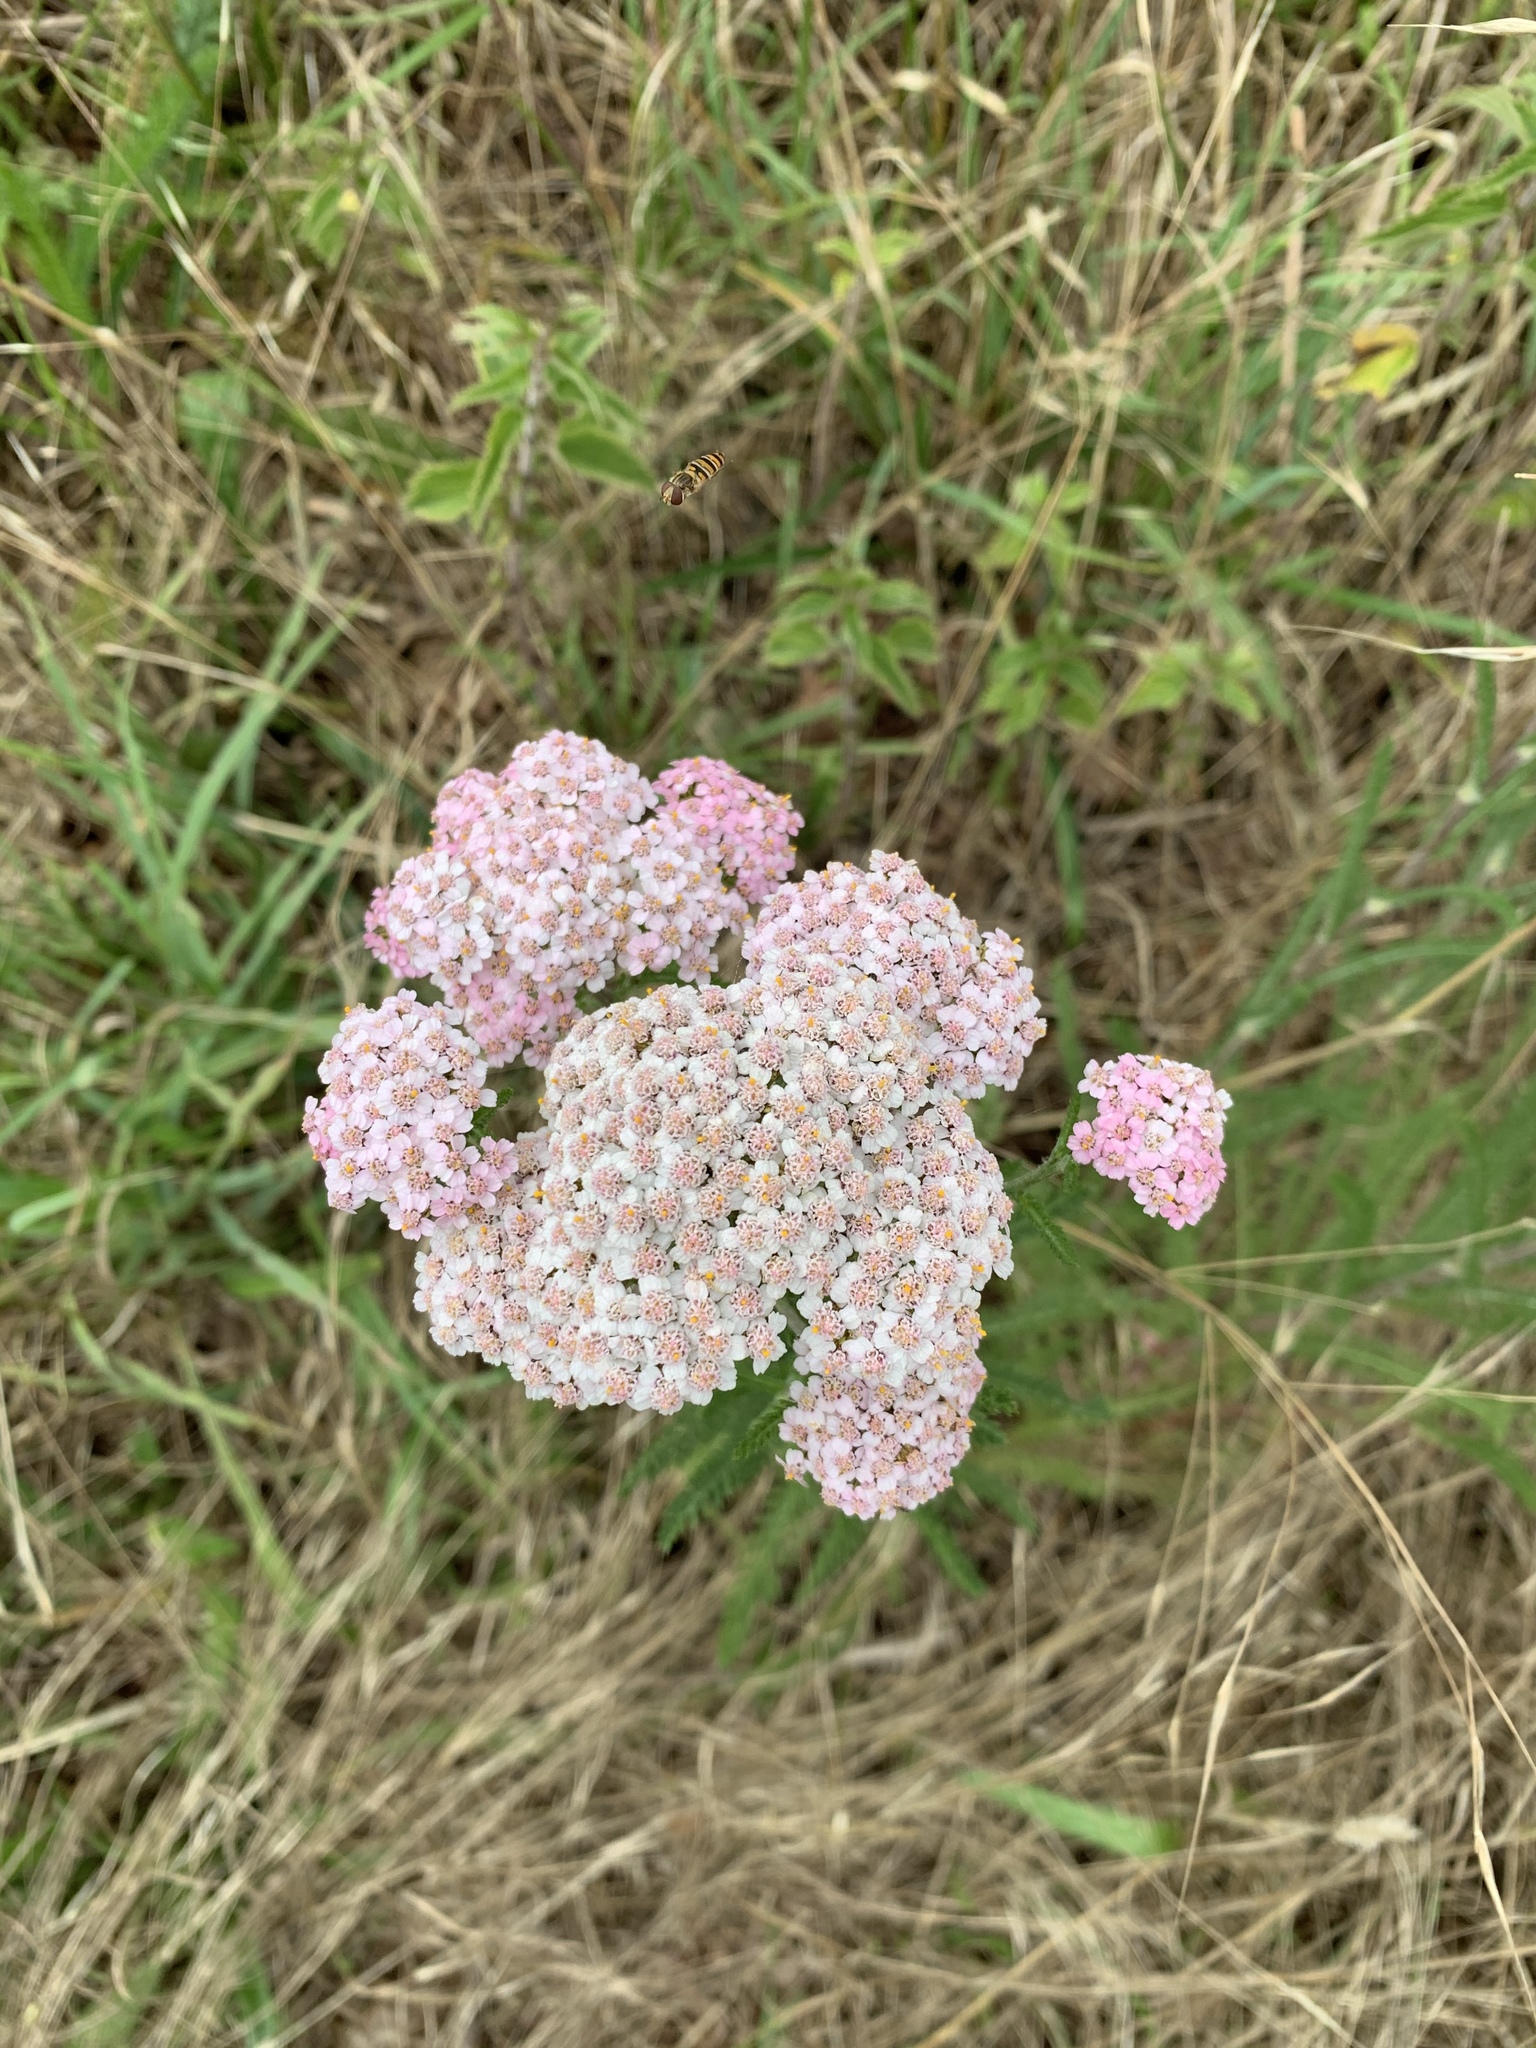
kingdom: Plantae
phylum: Tracheophyta
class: Magnoliopsida
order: Asterales
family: Asteraceae
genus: Achillea
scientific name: Achillea millefolium
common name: Yarrow
